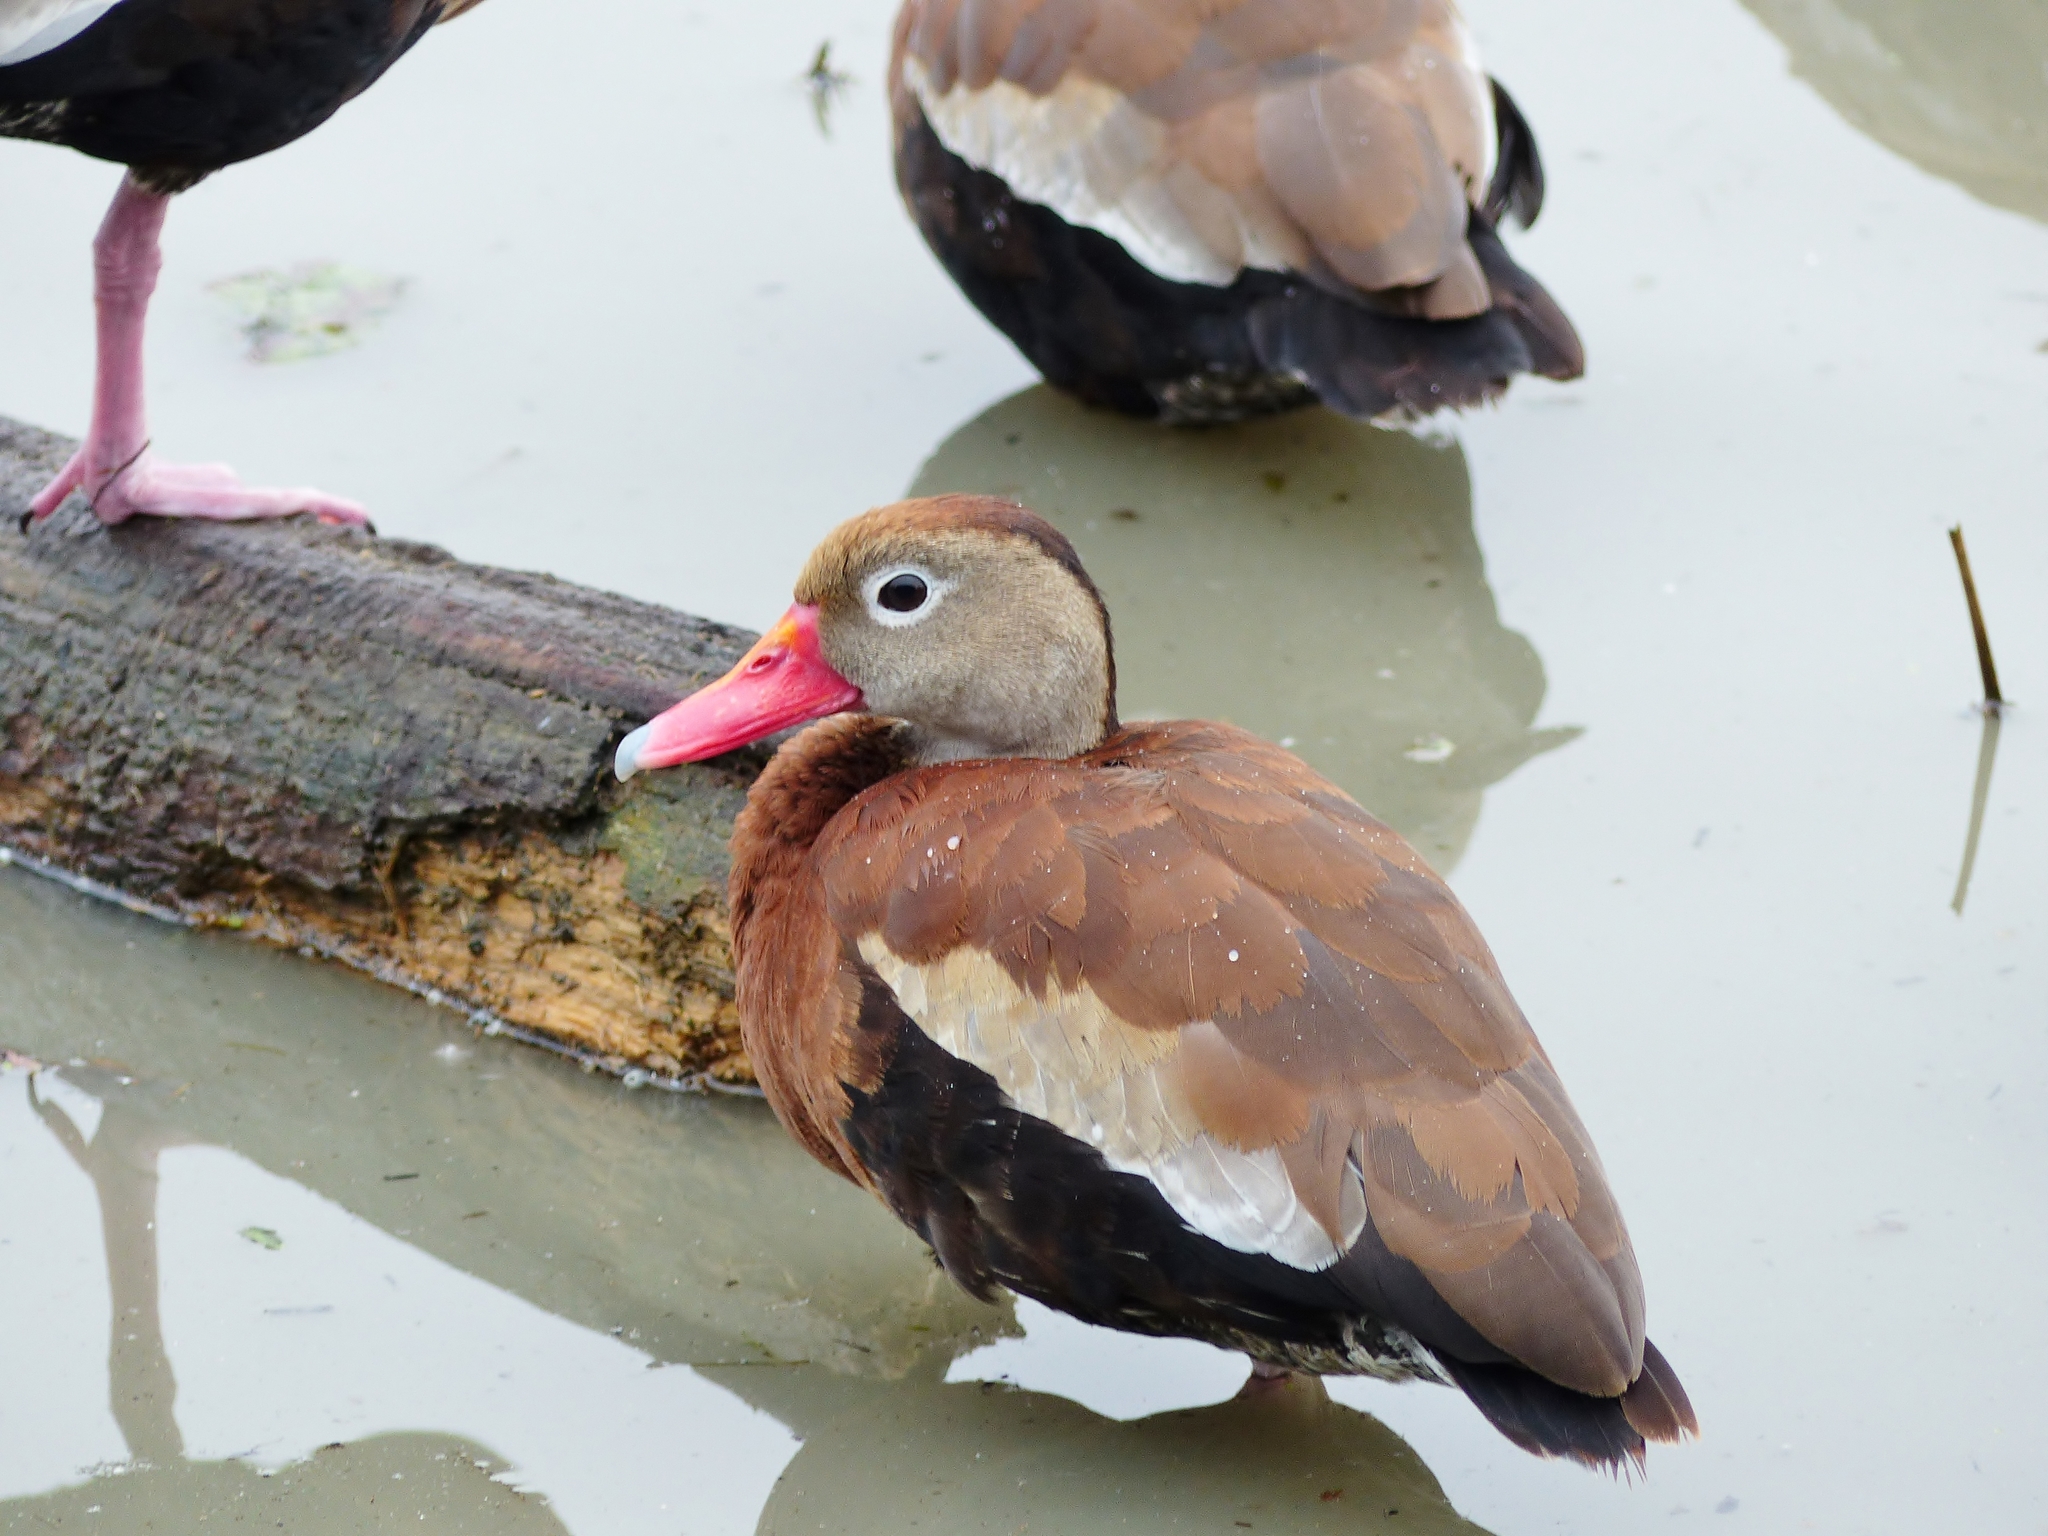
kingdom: Animalia
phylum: Chordata
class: Aves
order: Anseriformes
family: Anatidae
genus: Dendrocygna
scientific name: Dendrocygna autumnalis
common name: Black-bellied whistling duck
